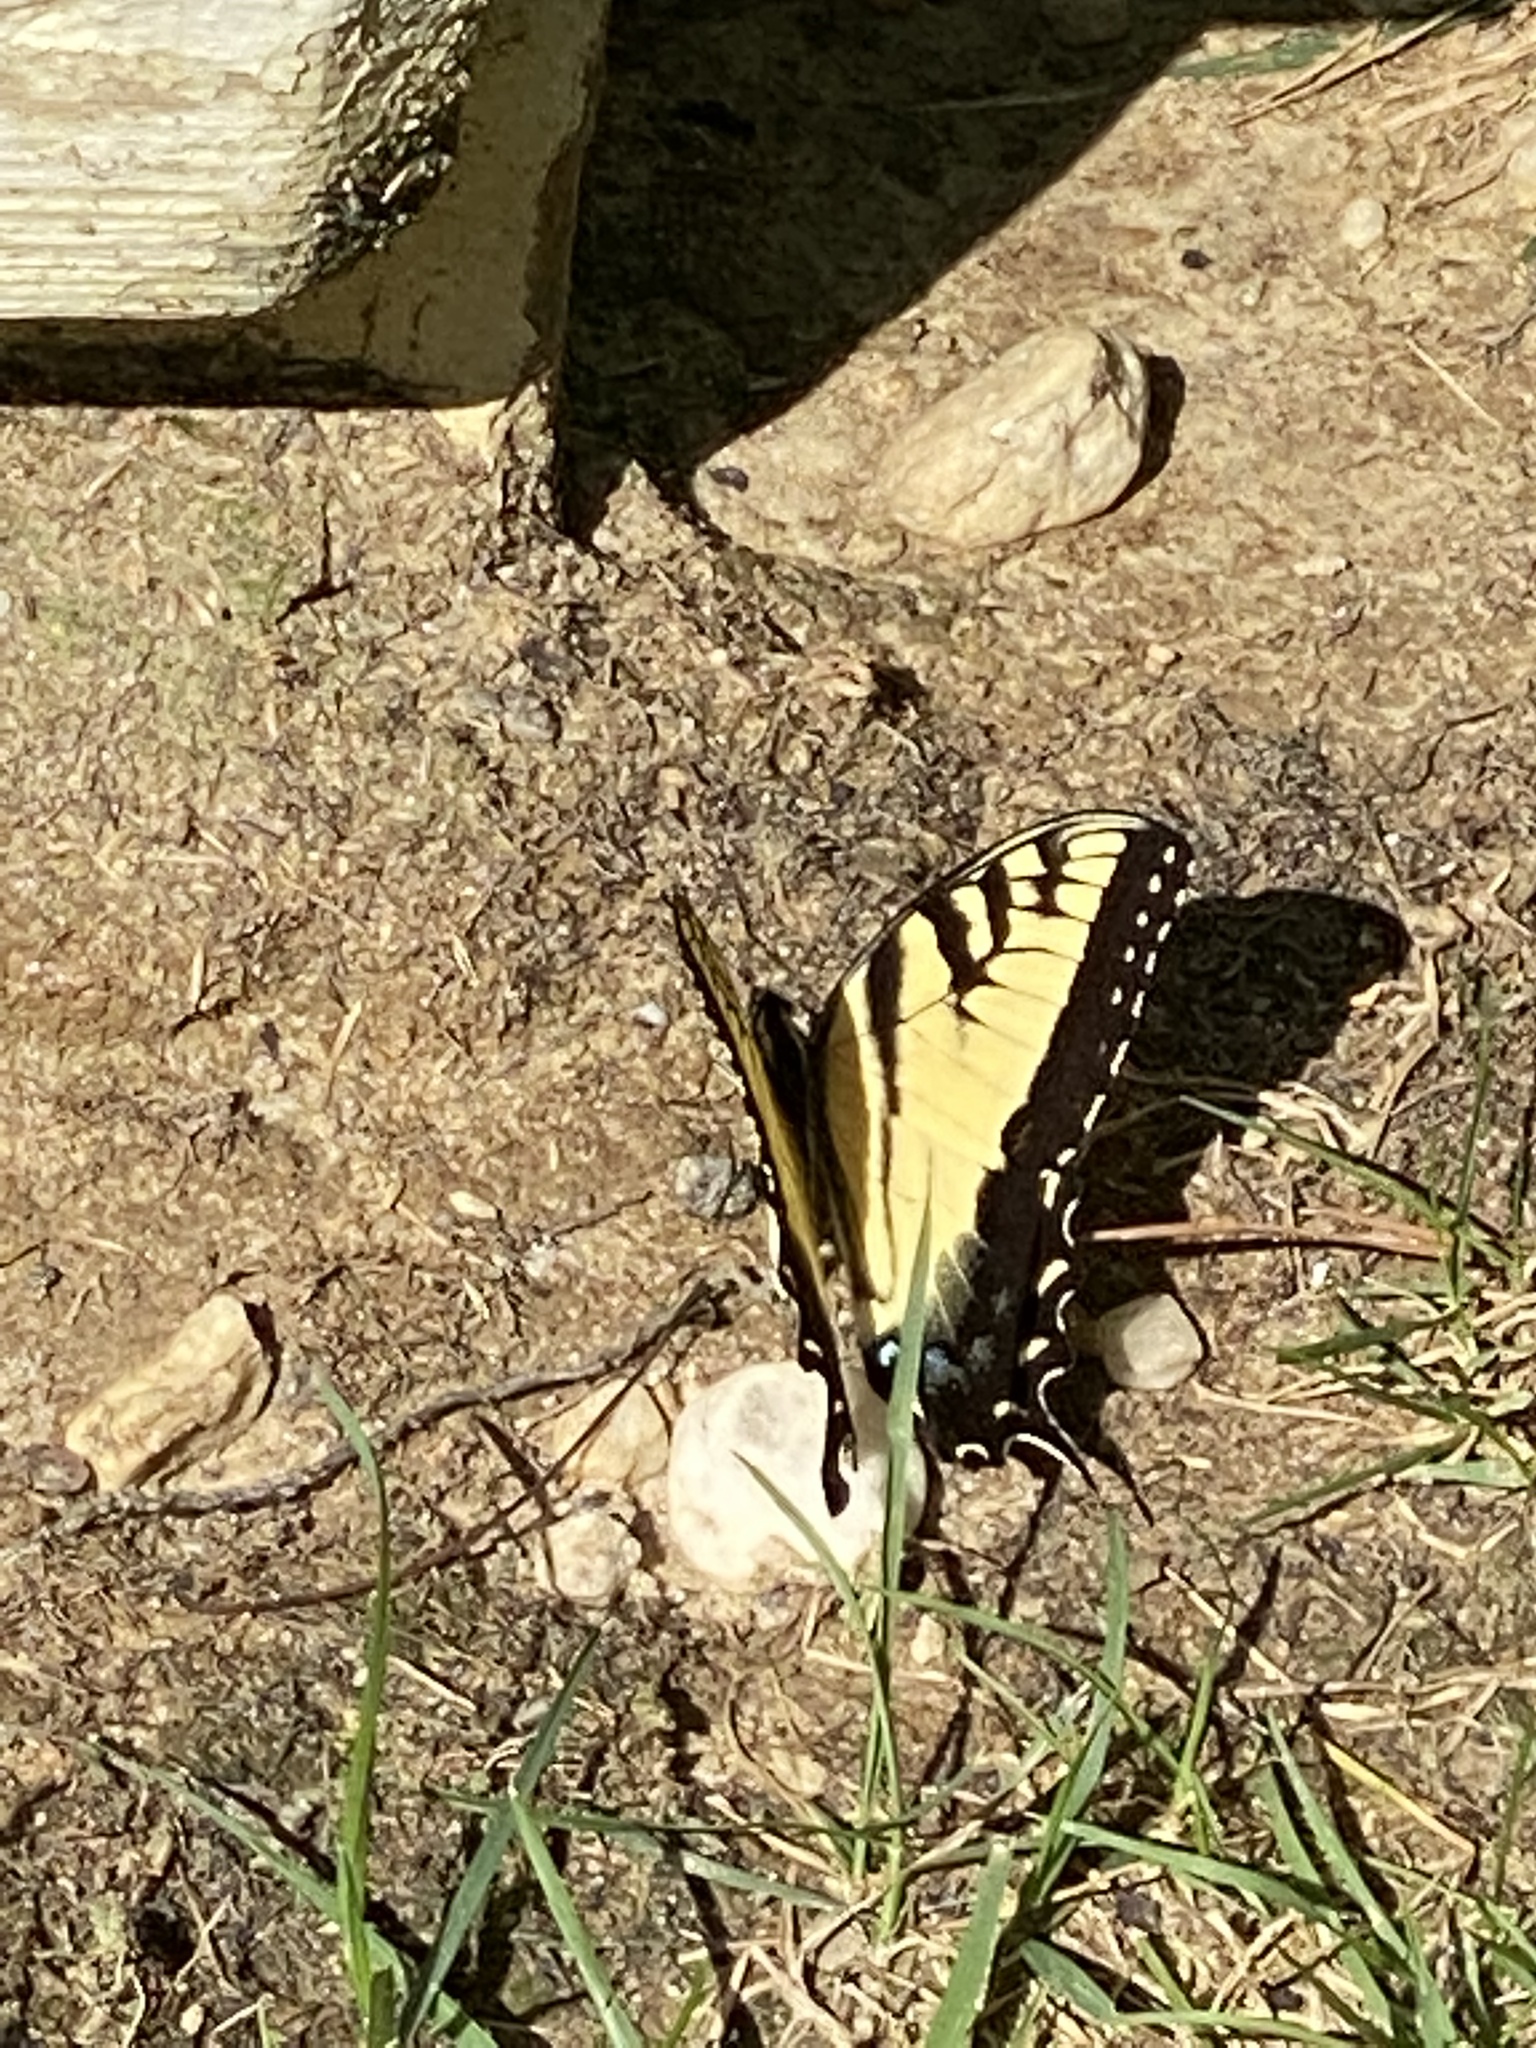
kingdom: Animalia
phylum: Arthropoda
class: Insecta
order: Lepidoptera
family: Papilionidae
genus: Papilio
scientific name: Papilio glaucus
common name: Tiger swallowtail
